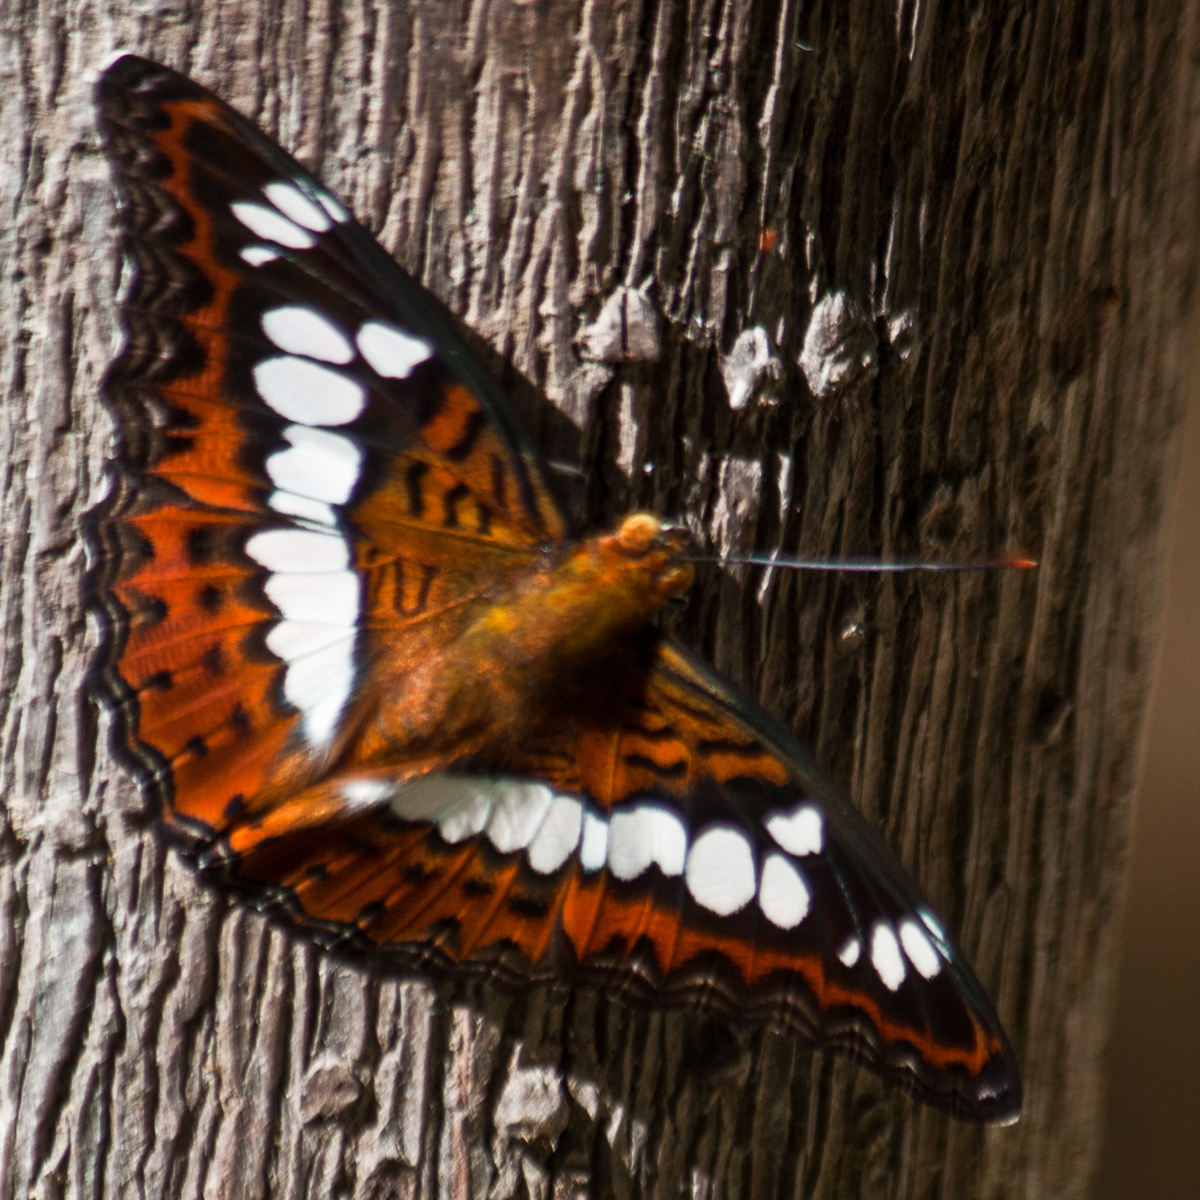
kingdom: Animalia
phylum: Arthropoda
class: Insecta
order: Lepidoptera
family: Nymphalidae
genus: Limenitis
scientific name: Limenitis Moduza procris
